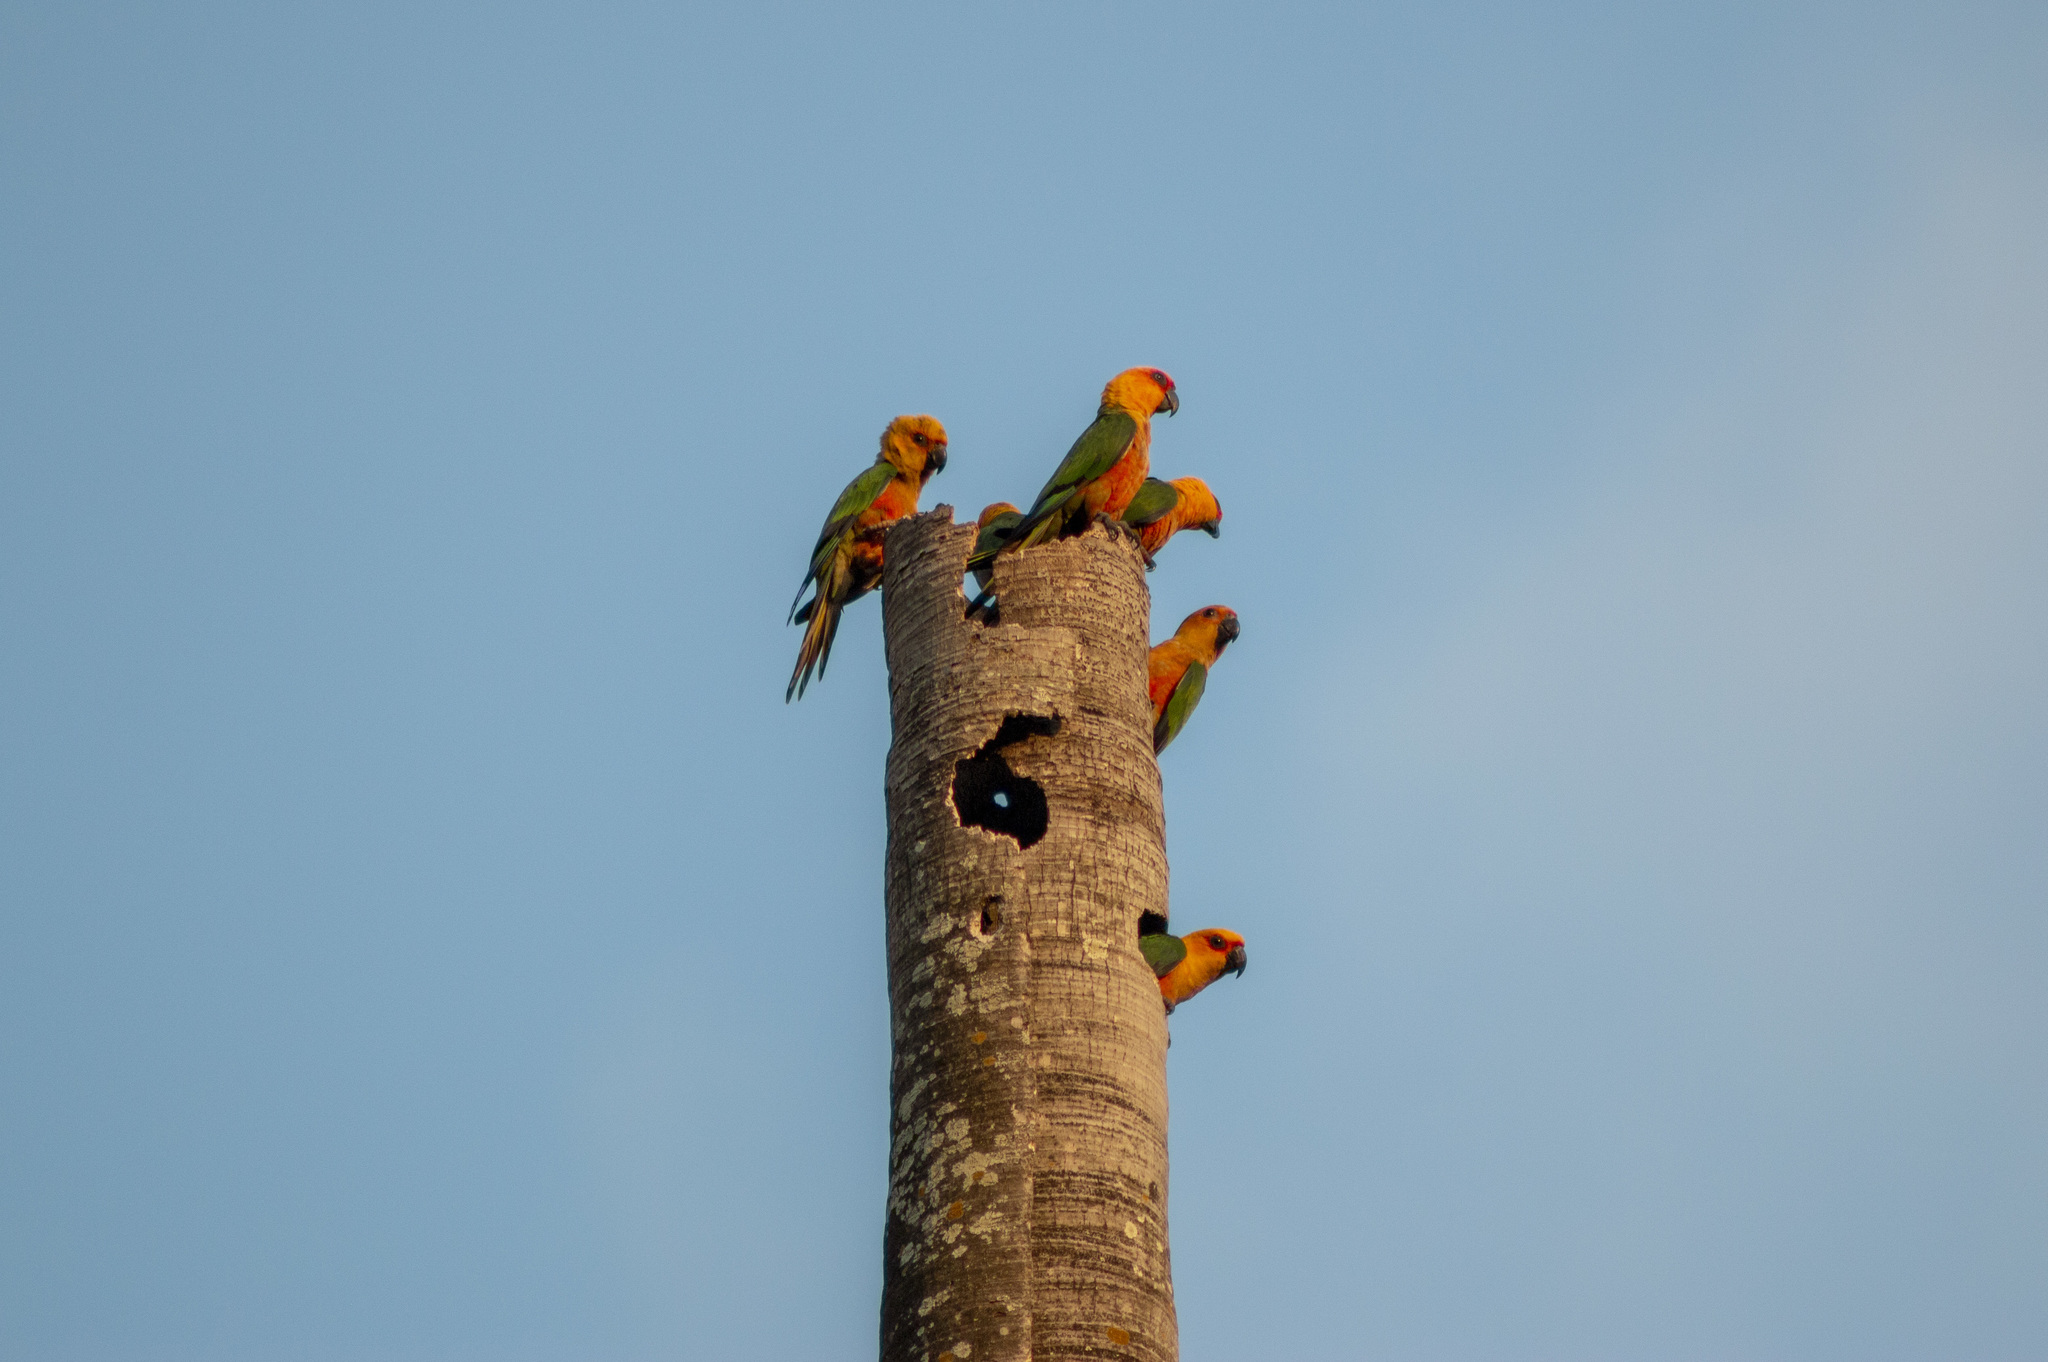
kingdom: Animalia
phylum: Chordata
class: Aves
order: Psittaciformes
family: Psittacidae
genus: Aratinga
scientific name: Aratinga jandaya
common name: Jandaya parakeet
